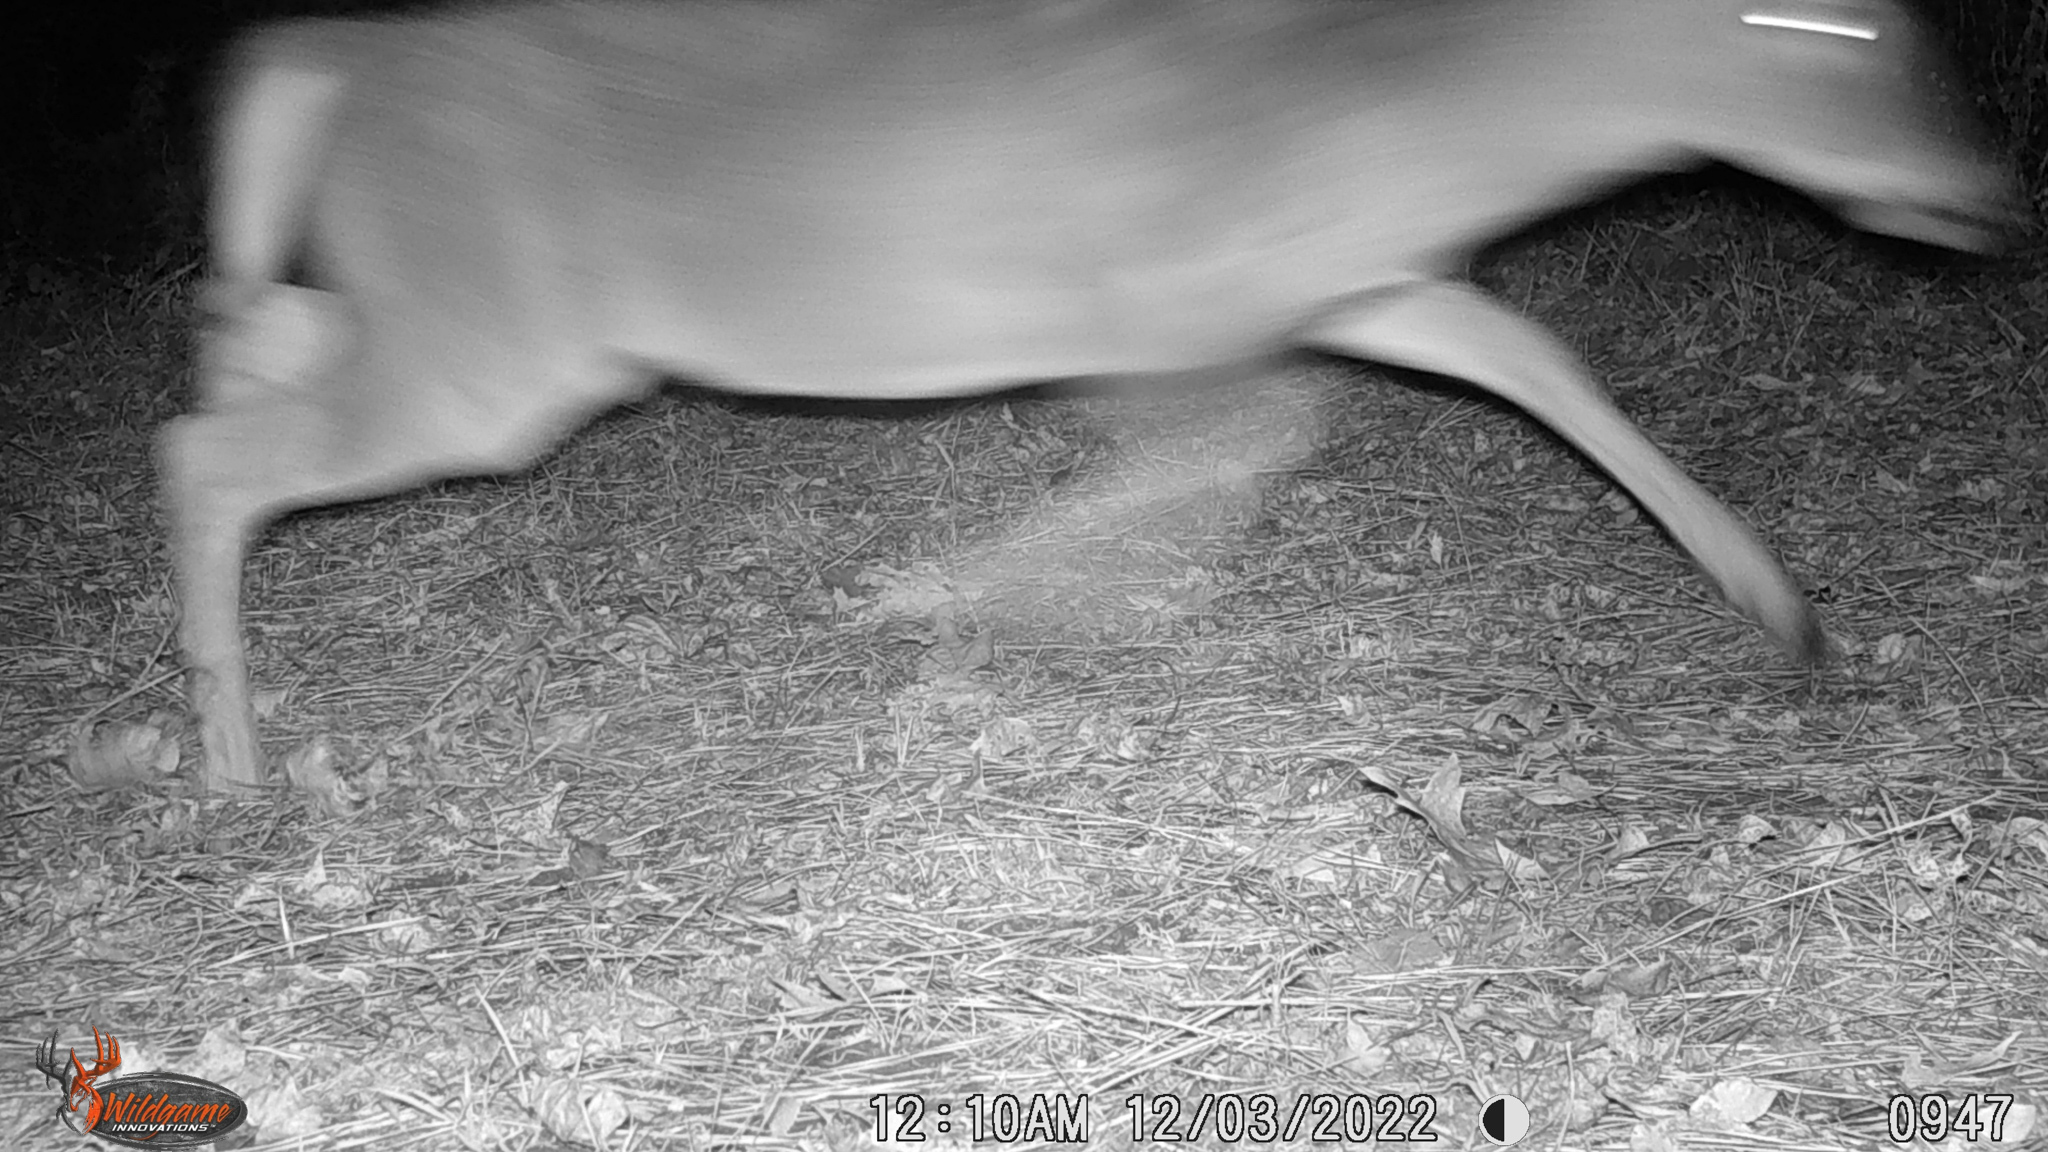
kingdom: Animalia
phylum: Chordata
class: Mammalia
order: Artiodactyla
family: Cervidae
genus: Odocoileus
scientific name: Odocoileus virginianus
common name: White-tailed deer
